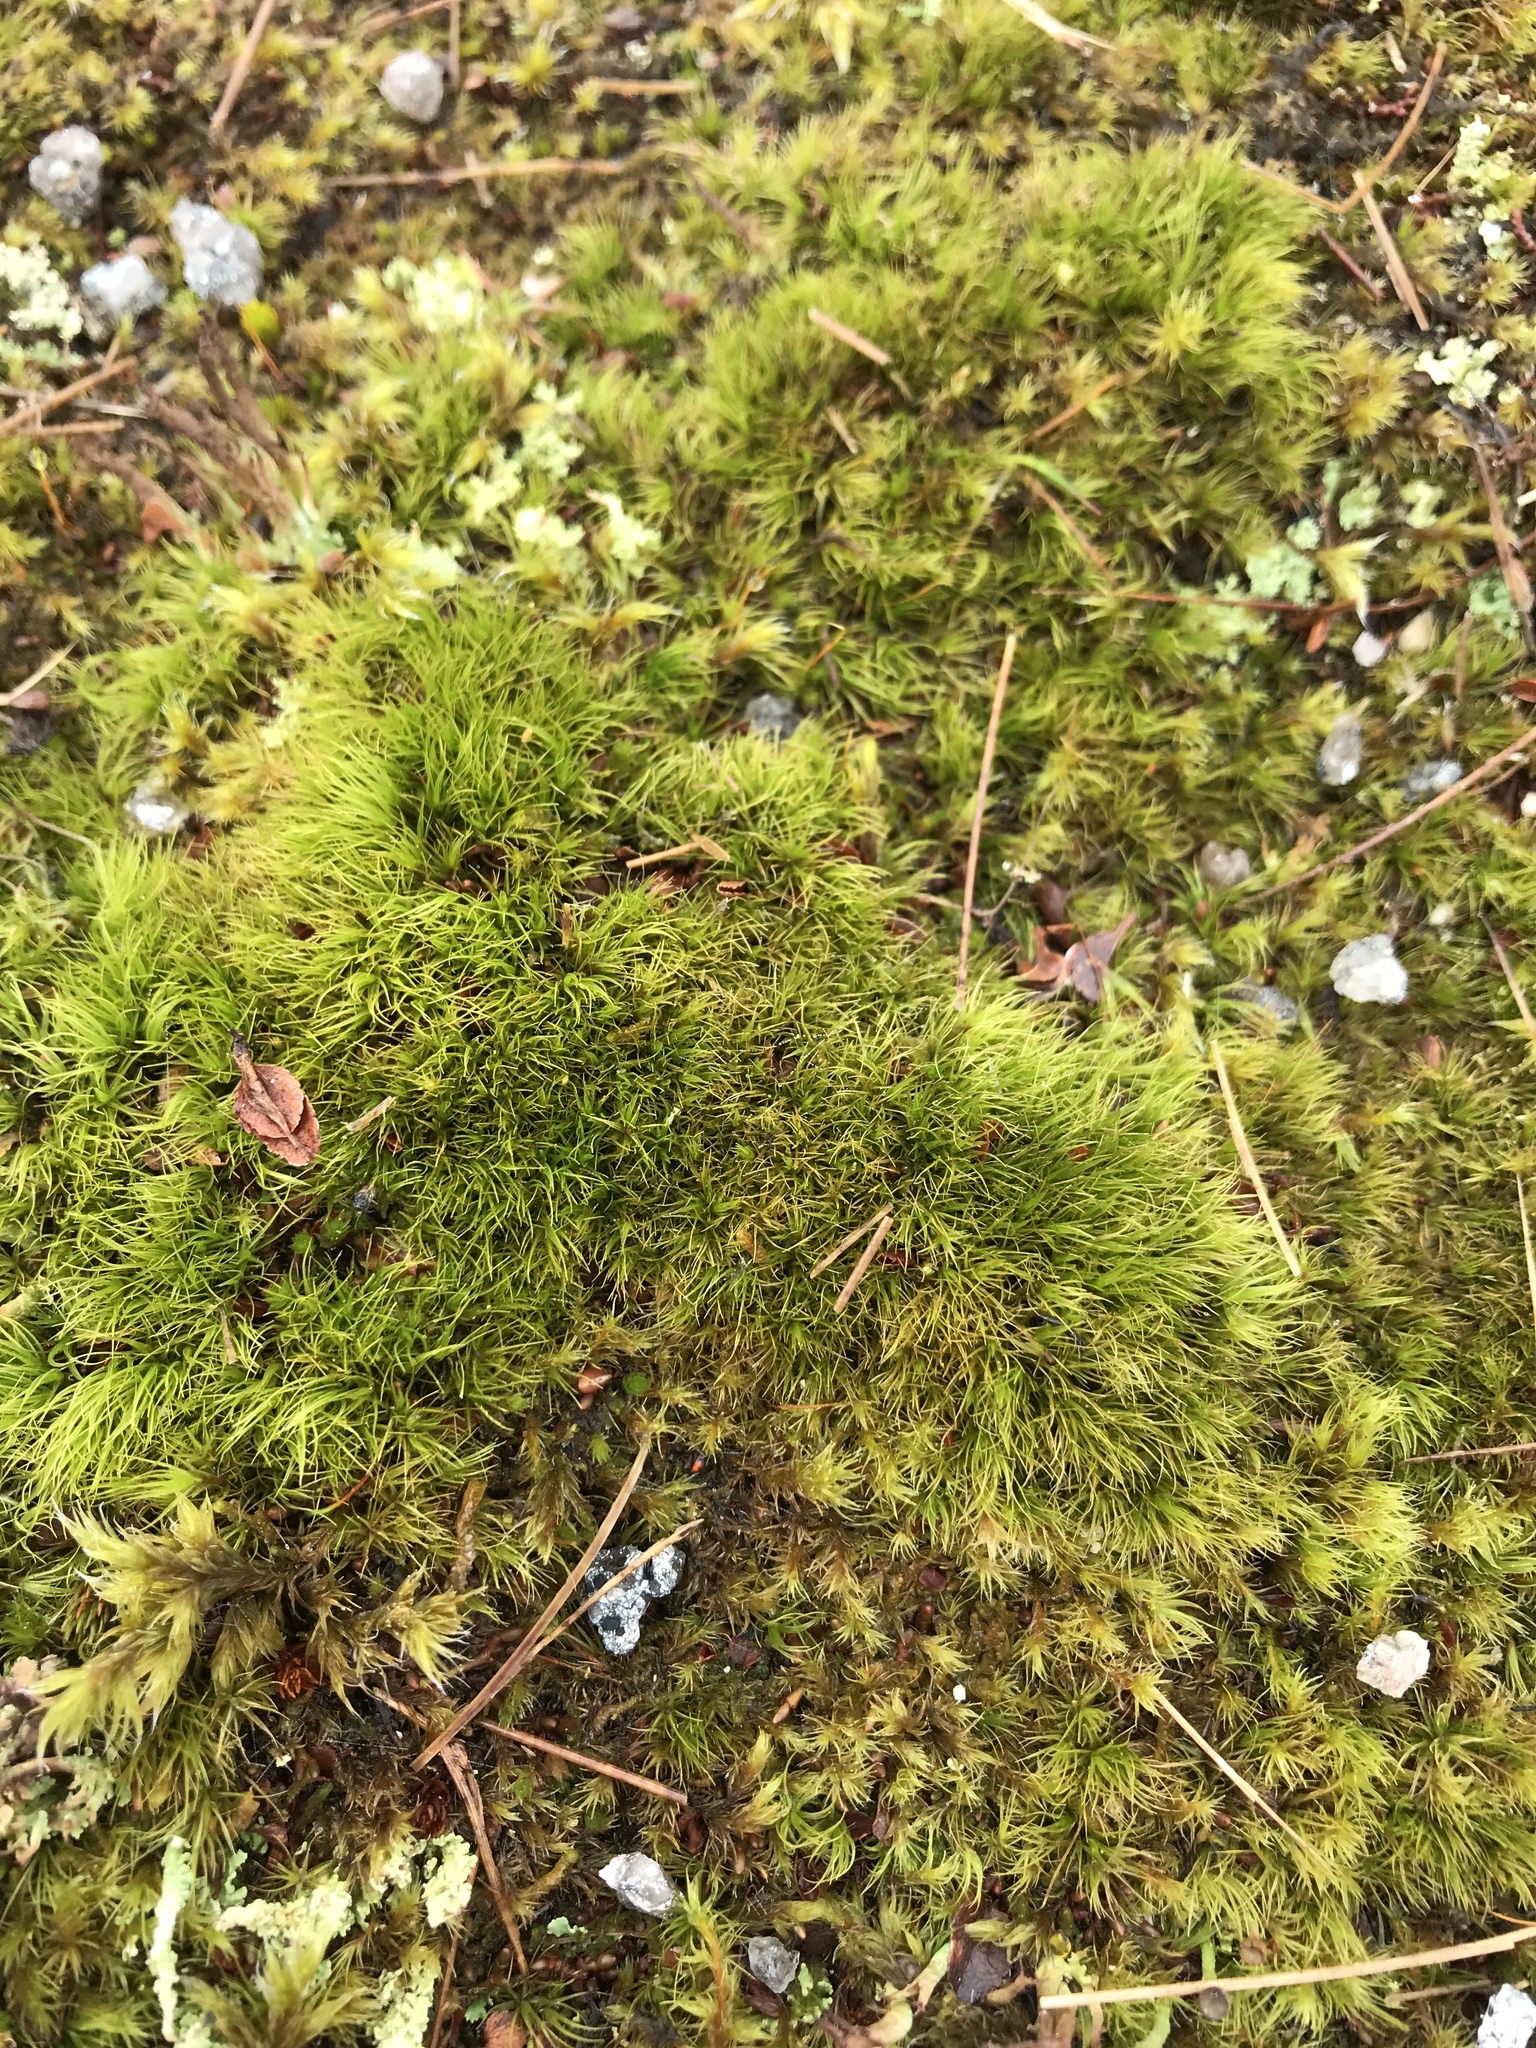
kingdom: Plantae
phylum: Bryophyta
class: Bryopsida
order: Dicranales
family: Dicranaceae
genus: Dicranum
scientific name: Dicranum scoparium
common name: Broom fork-moss
